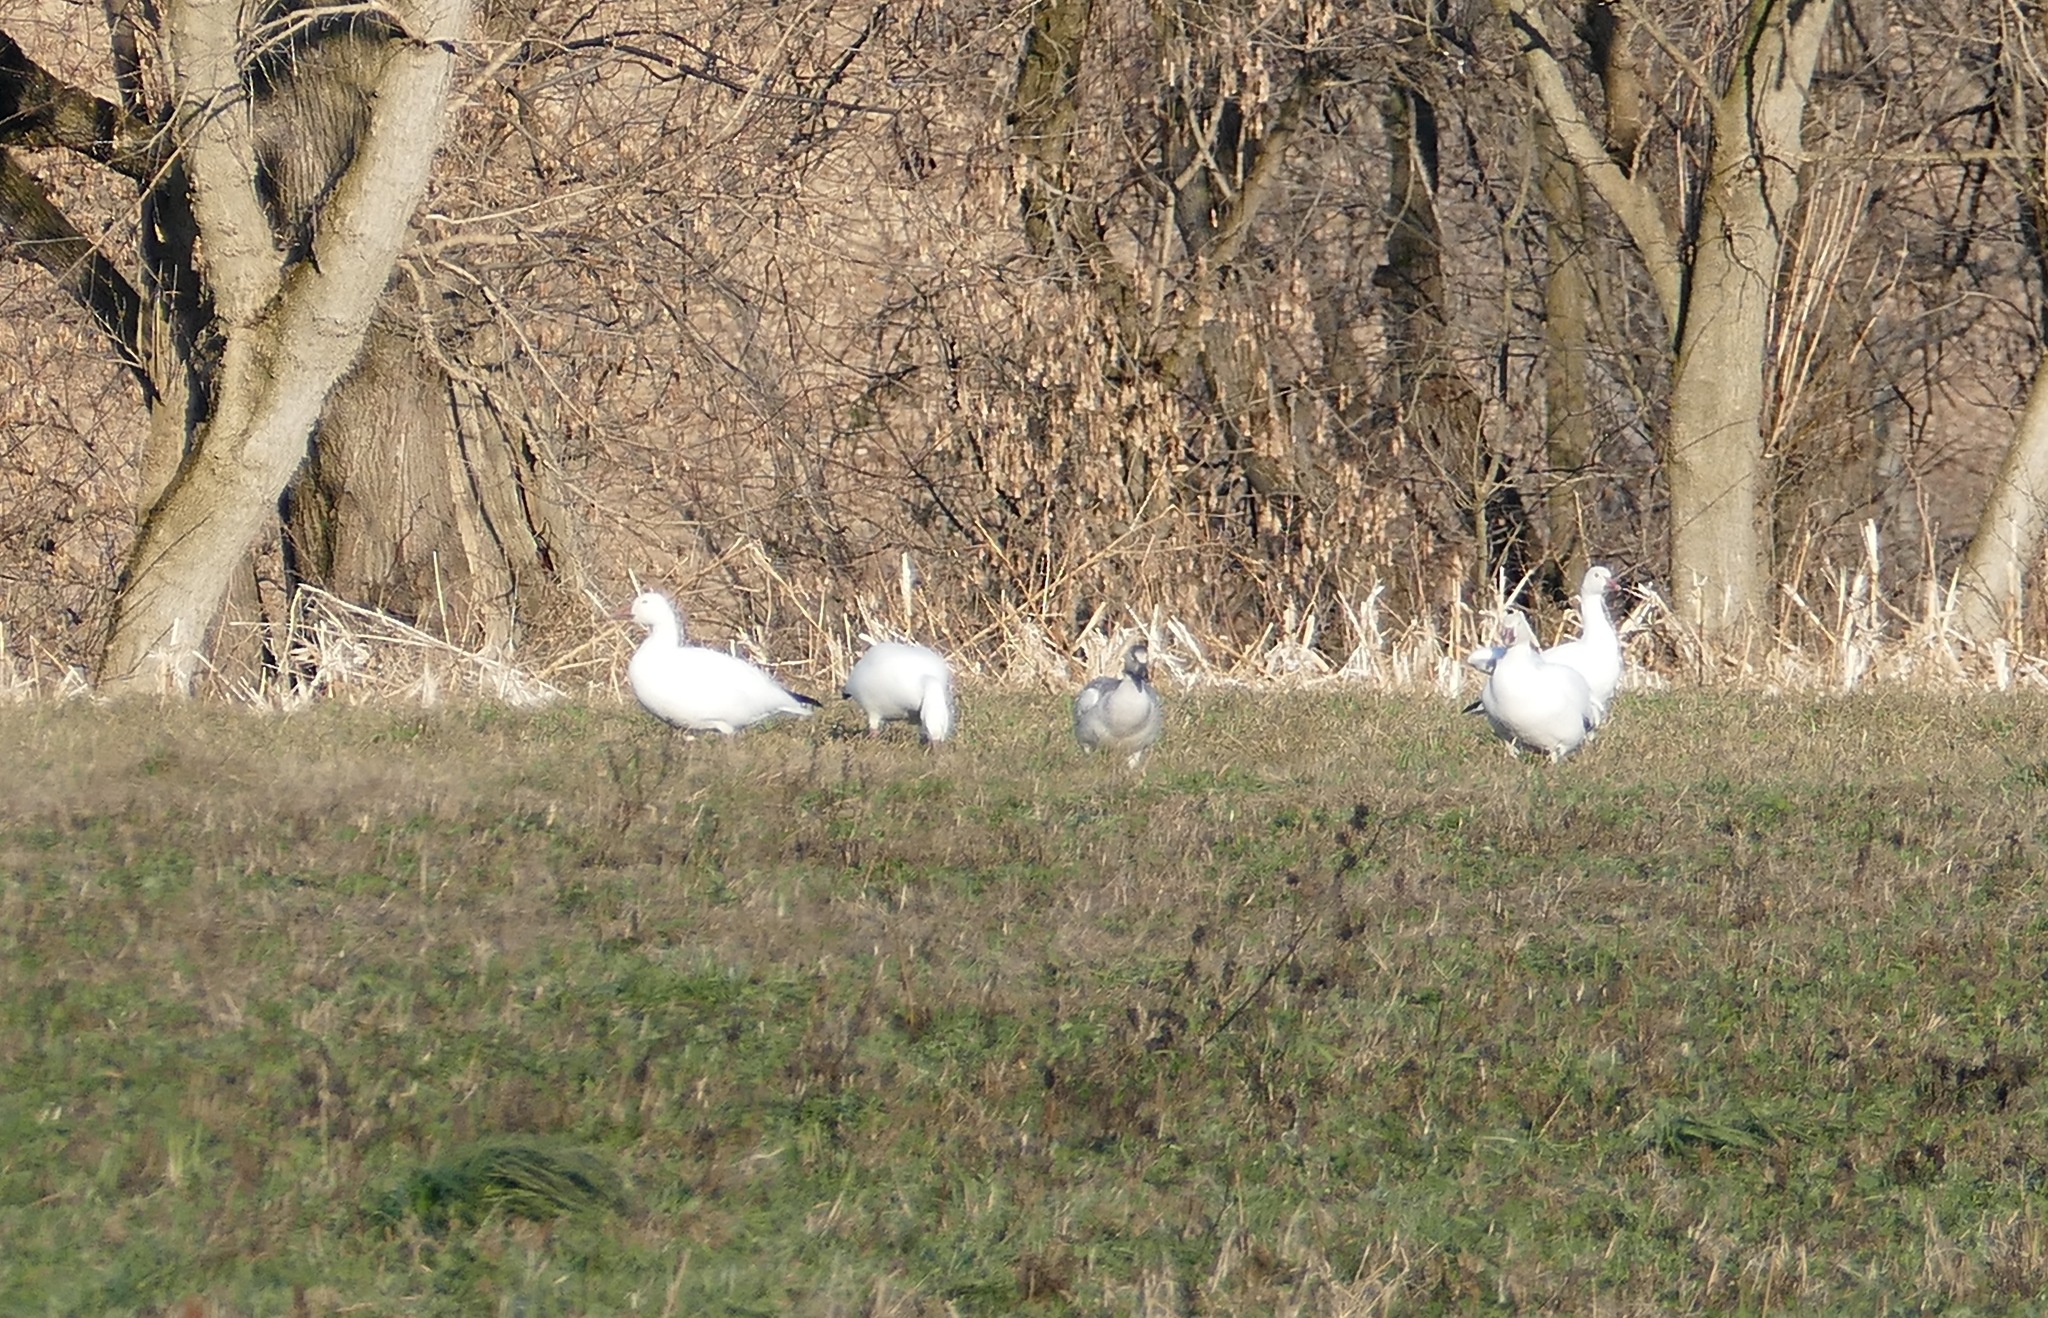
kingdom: Animalia
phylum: Chordata
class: Aves
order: Anseriformes
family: Anatidae
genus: Anser
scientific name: Anser caerulescens
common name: Snow goose
